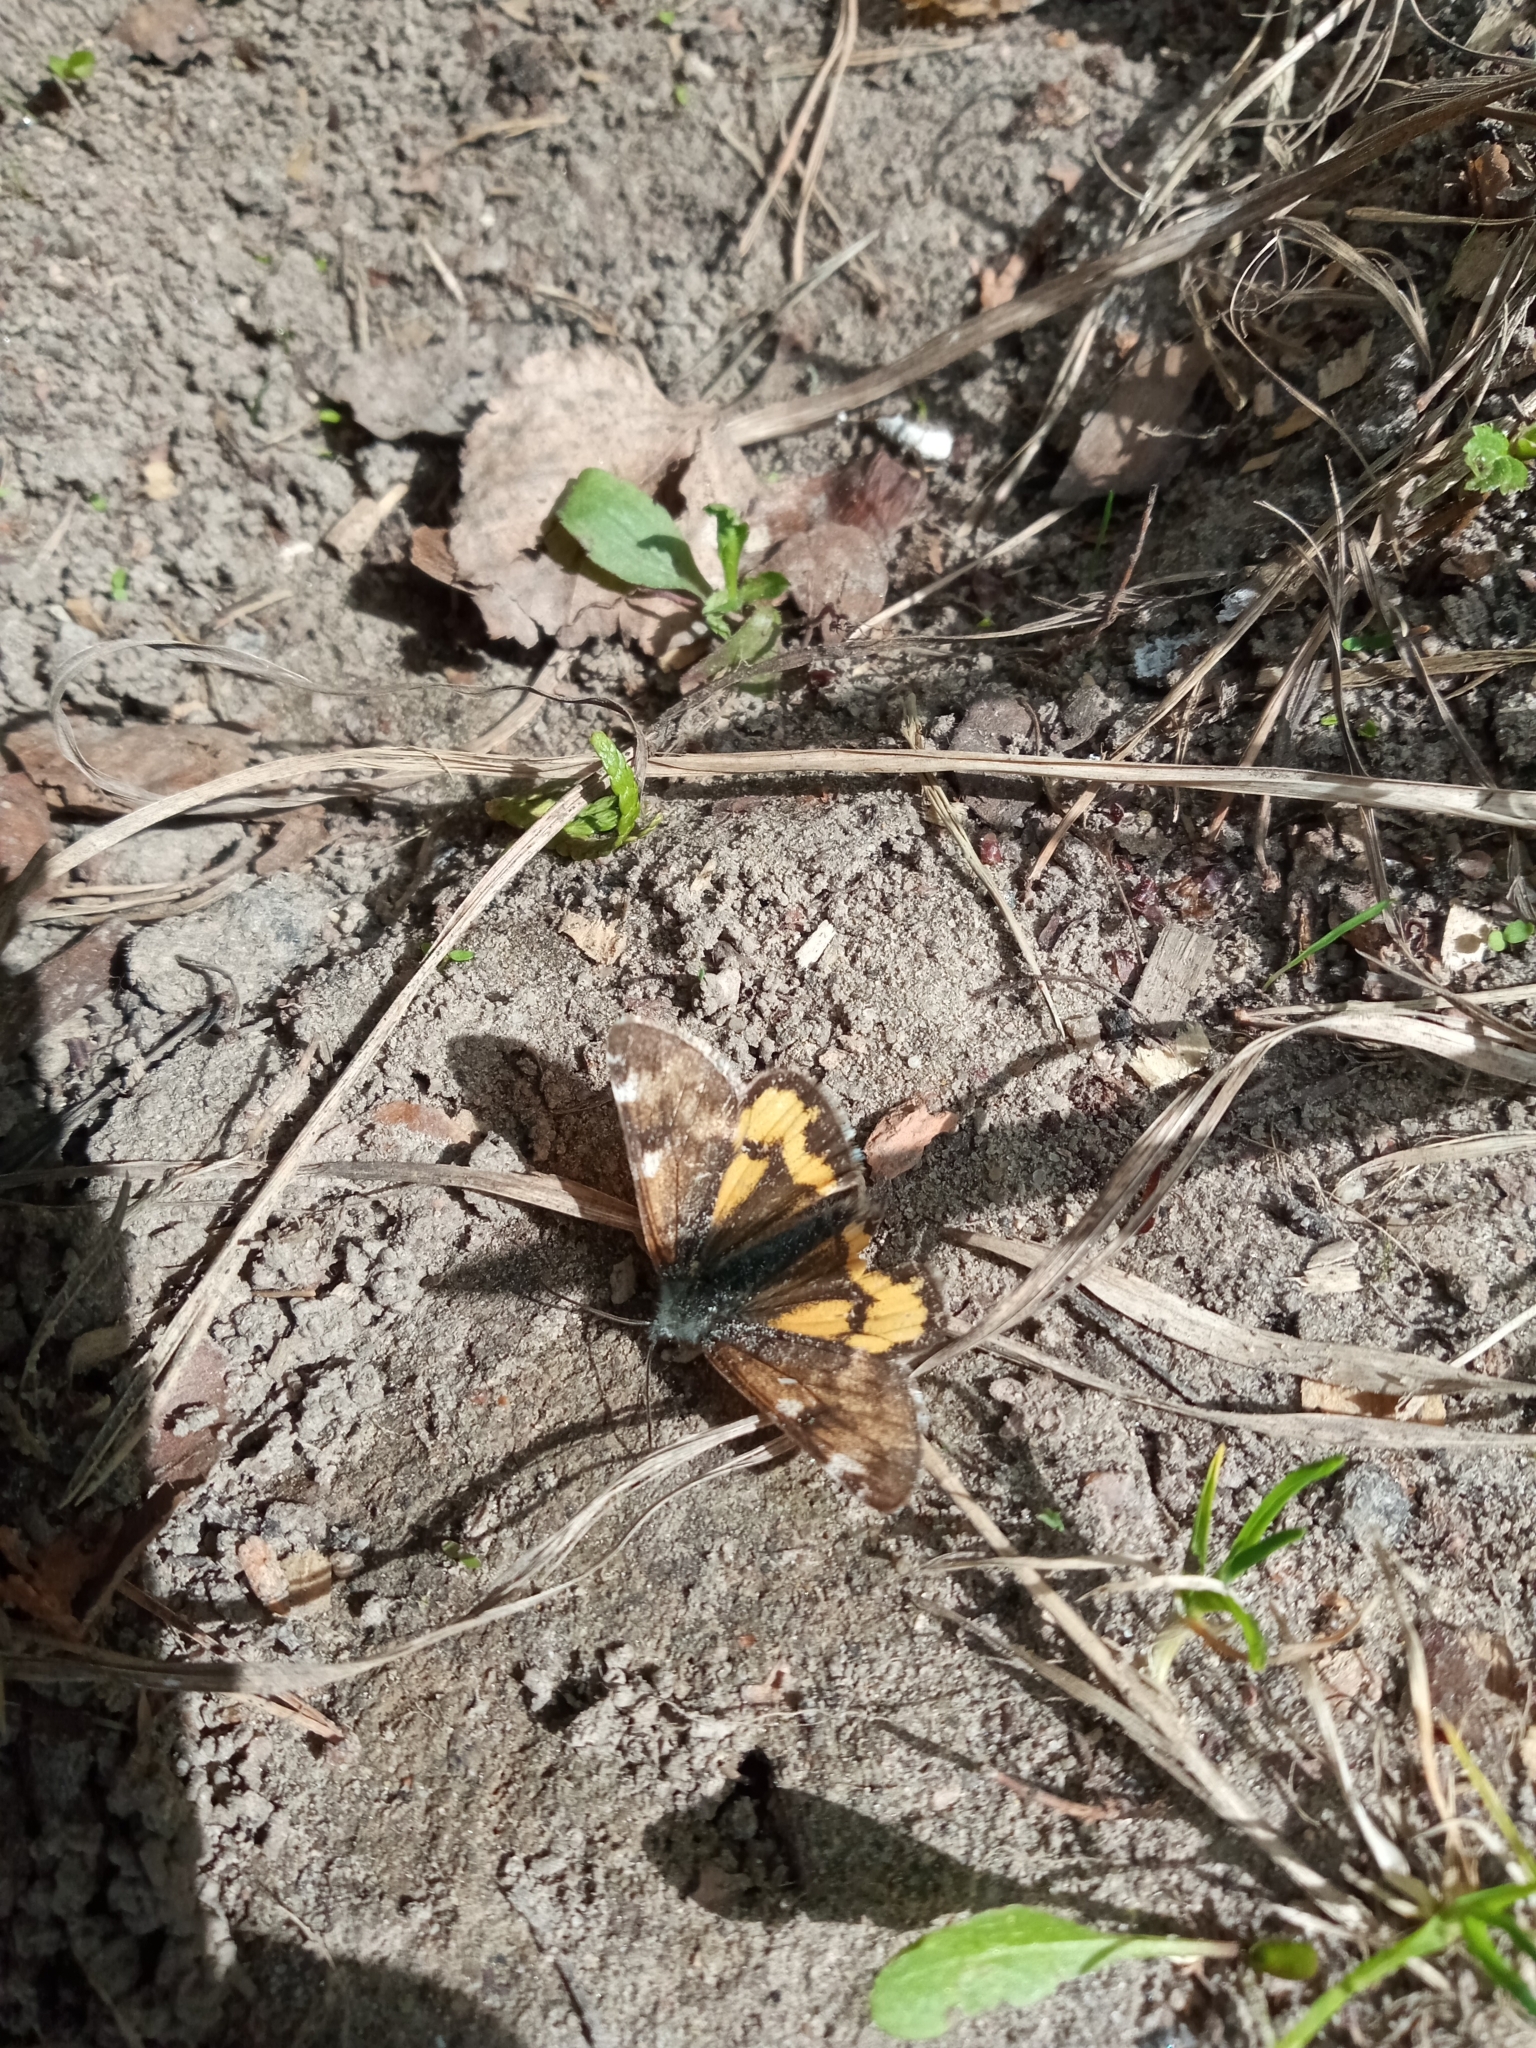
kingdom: Animalia
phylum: Arthropoda
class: Insecta
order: Lepidoptera
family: Geometridae
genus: Archiearis
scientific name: Archiearis parthenias
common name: Orange underwing
